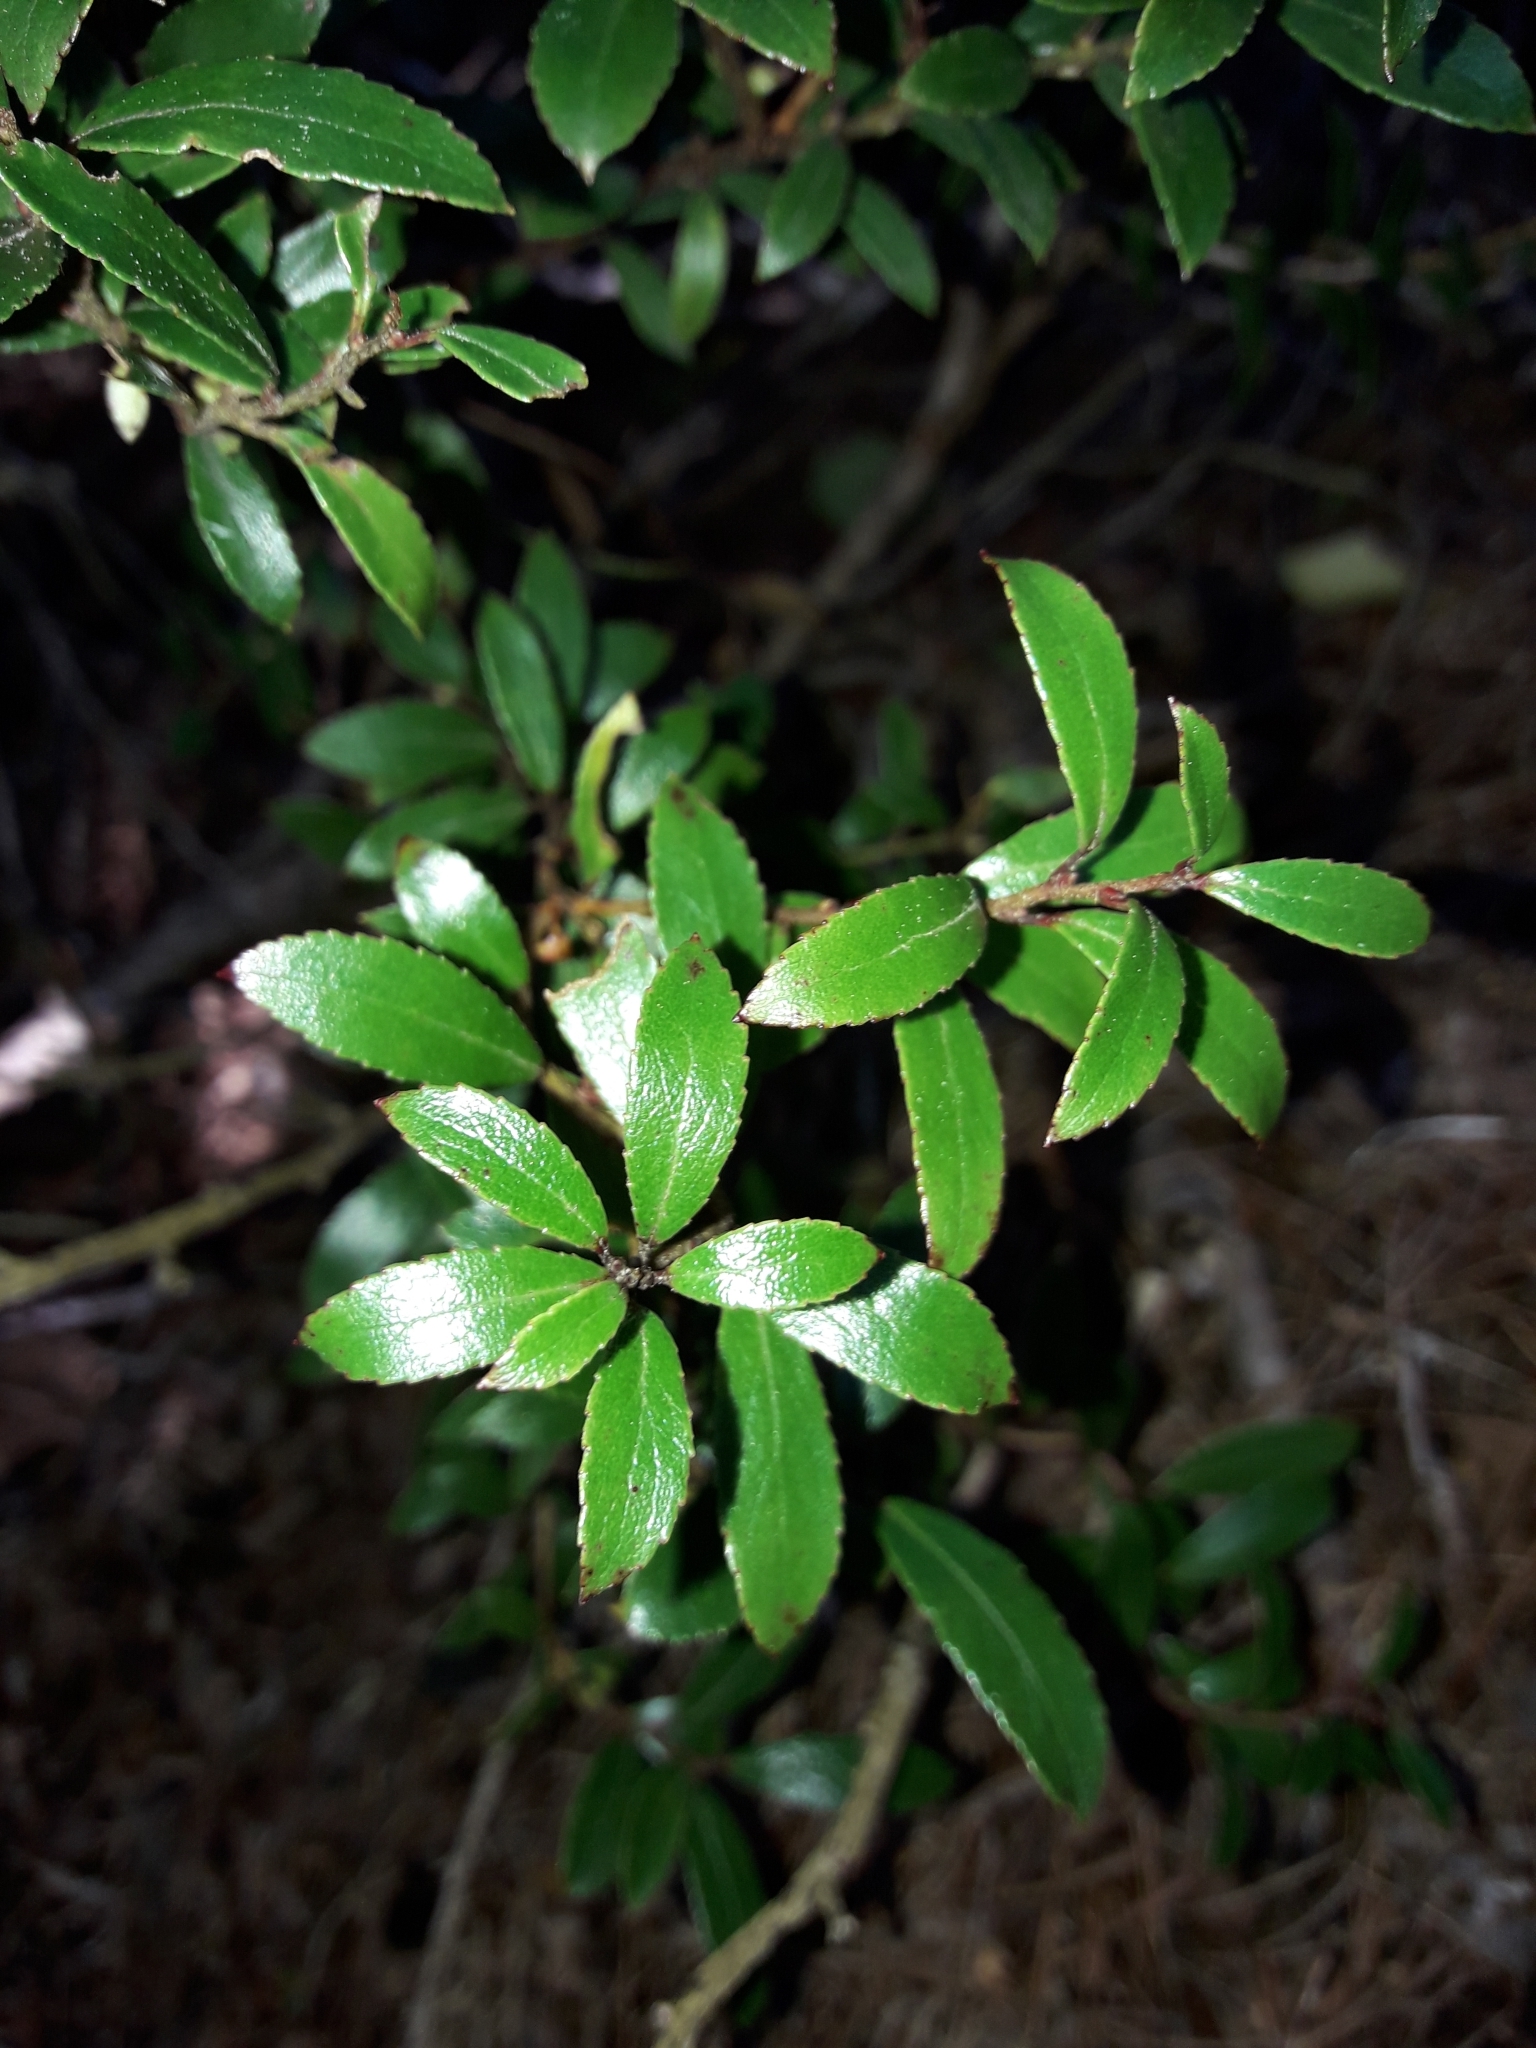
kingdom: Plantae
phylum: Tracheophyta
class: Magnoliopsida
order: Ericales
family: Ericaceae
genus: Gaultheria
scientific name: Gaultheria rupestris
